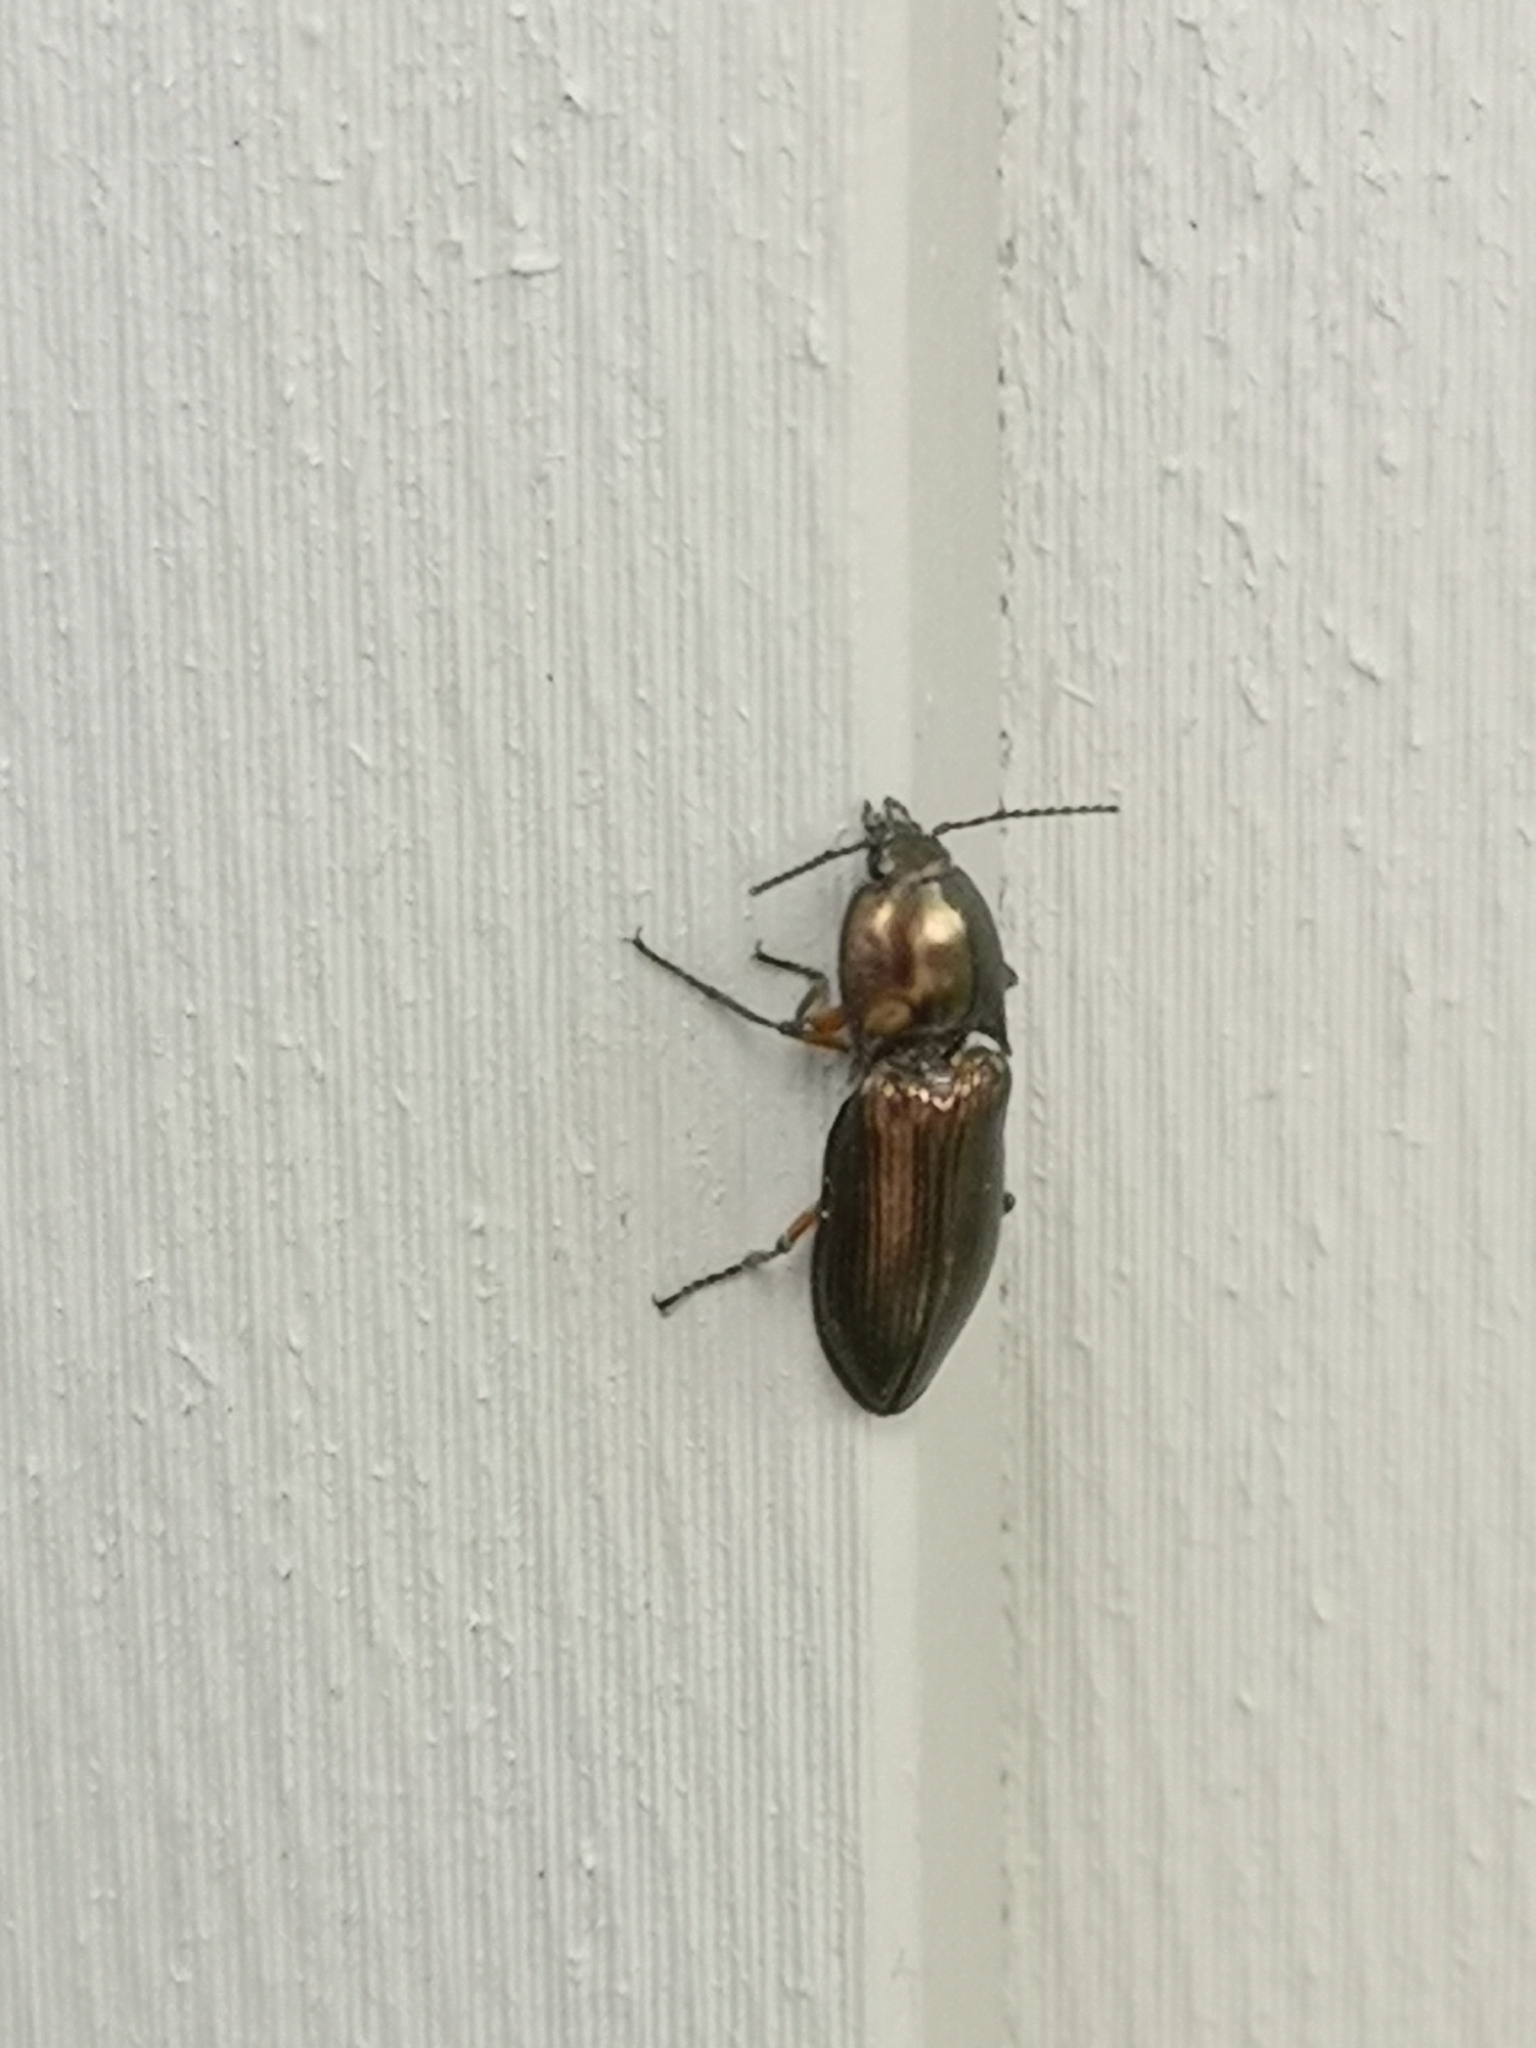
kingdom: Animalia
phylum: Arthropoda
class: Insecta
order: Coleoptera
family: Elateridae
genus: Selatosomus
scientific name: Selatosomus aeneus
